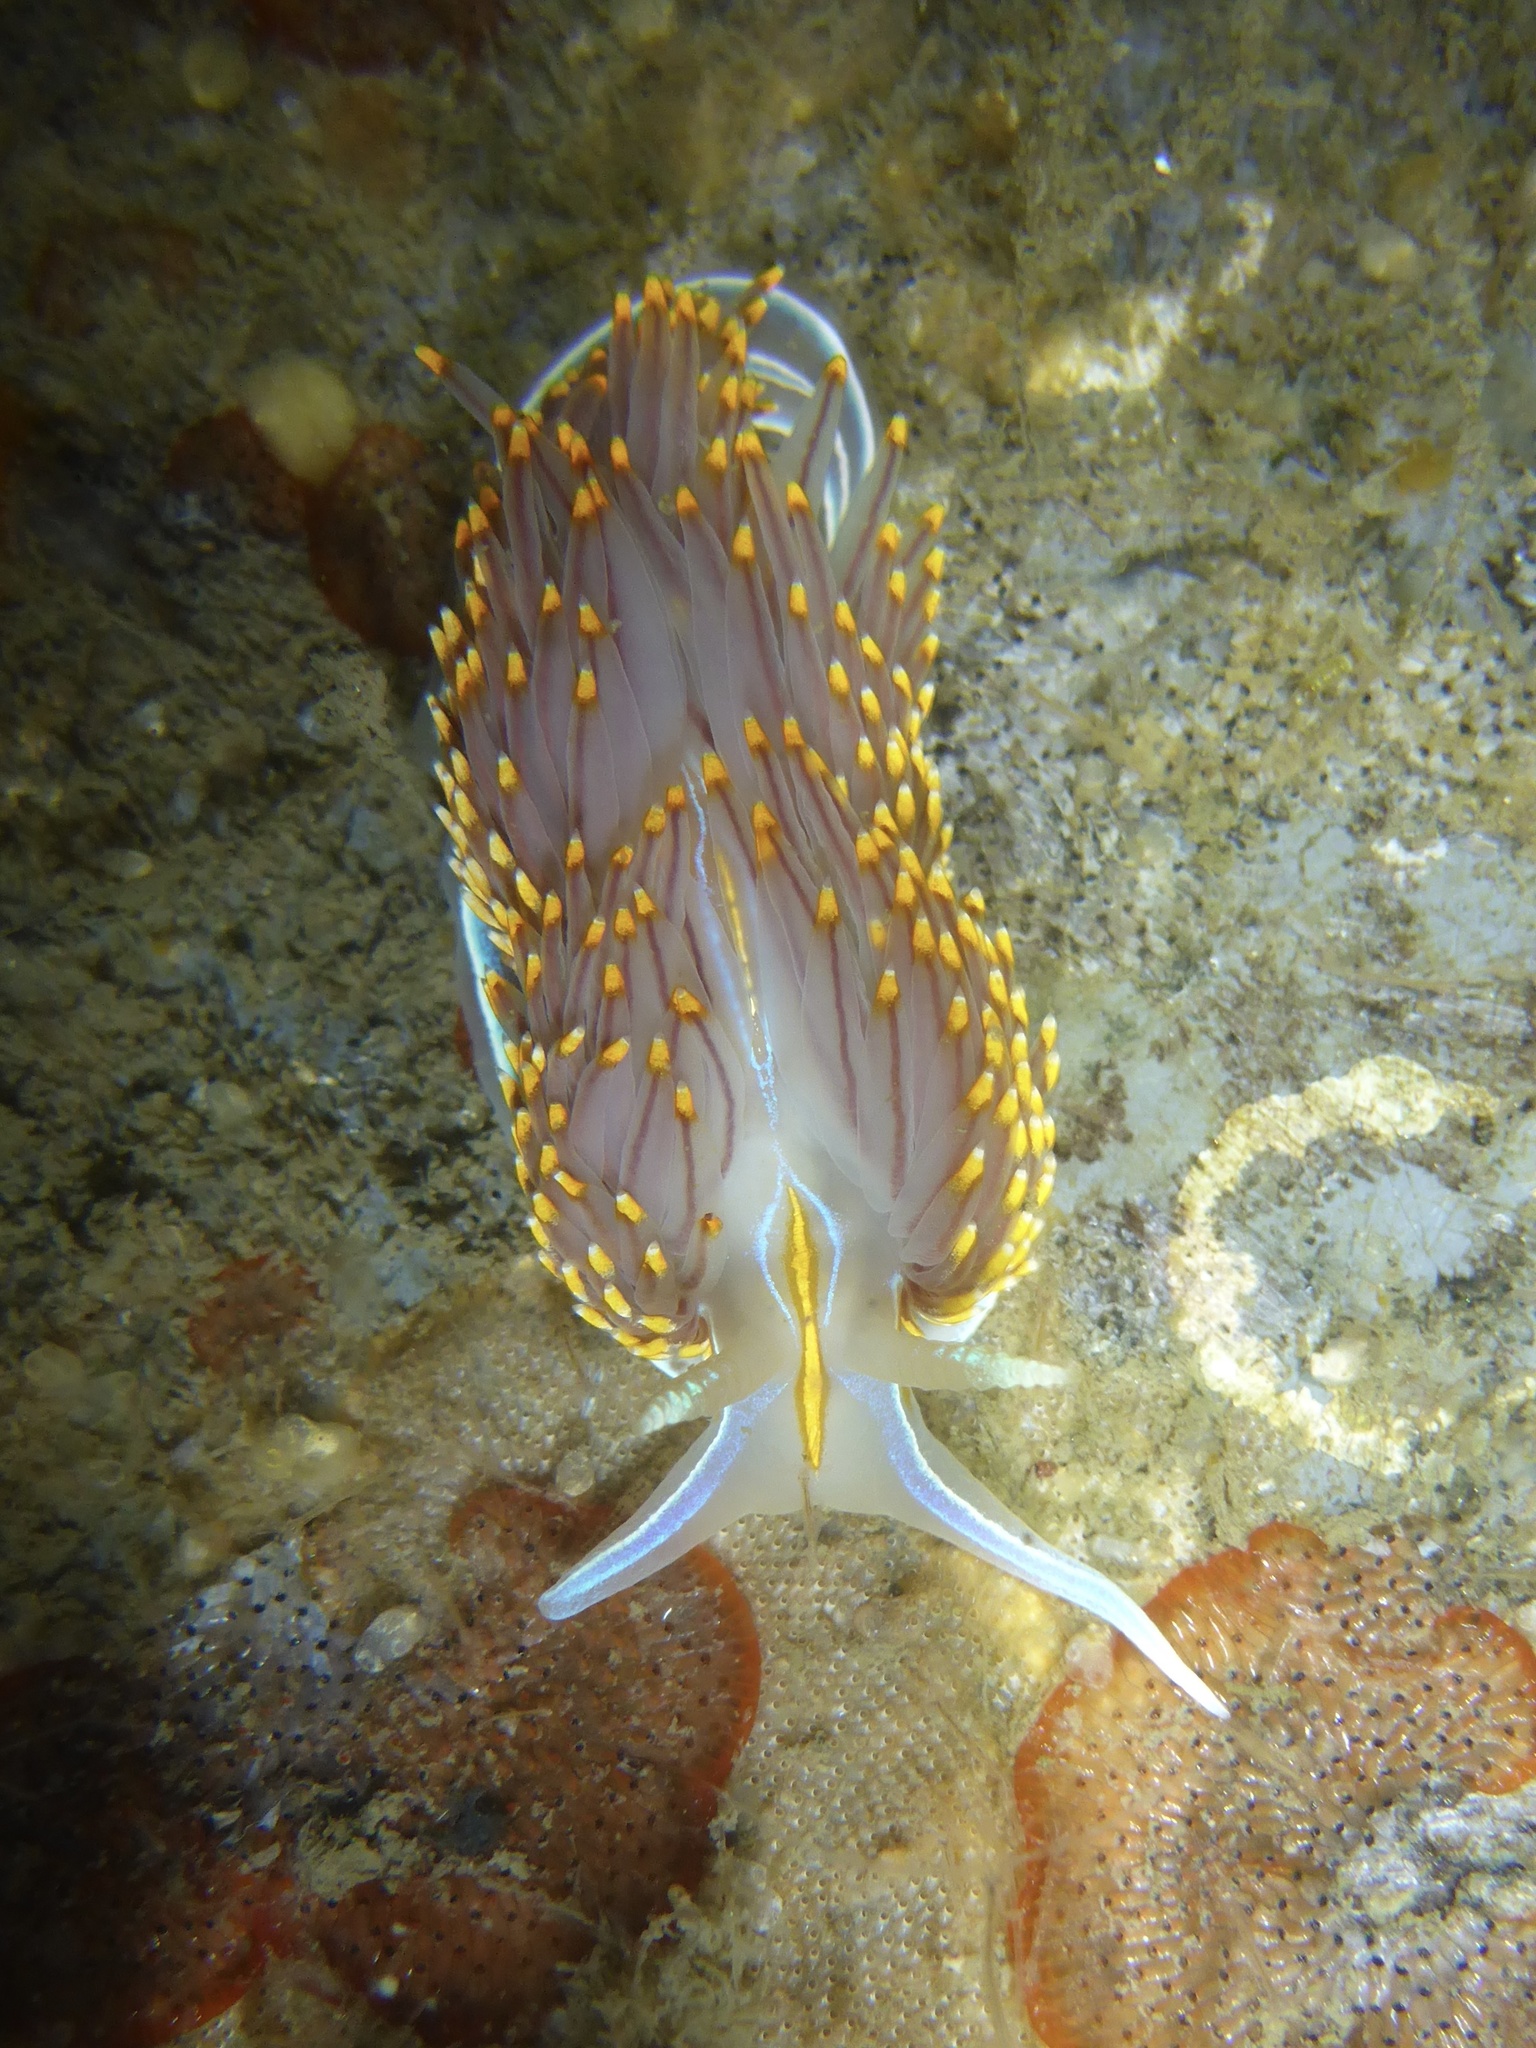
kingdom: Animalia
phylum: Mollusca
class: Gastropoda
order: Nudibranchia
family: Myrrhinidae
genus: Hermissenda
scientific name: Hermissenda opalescens
